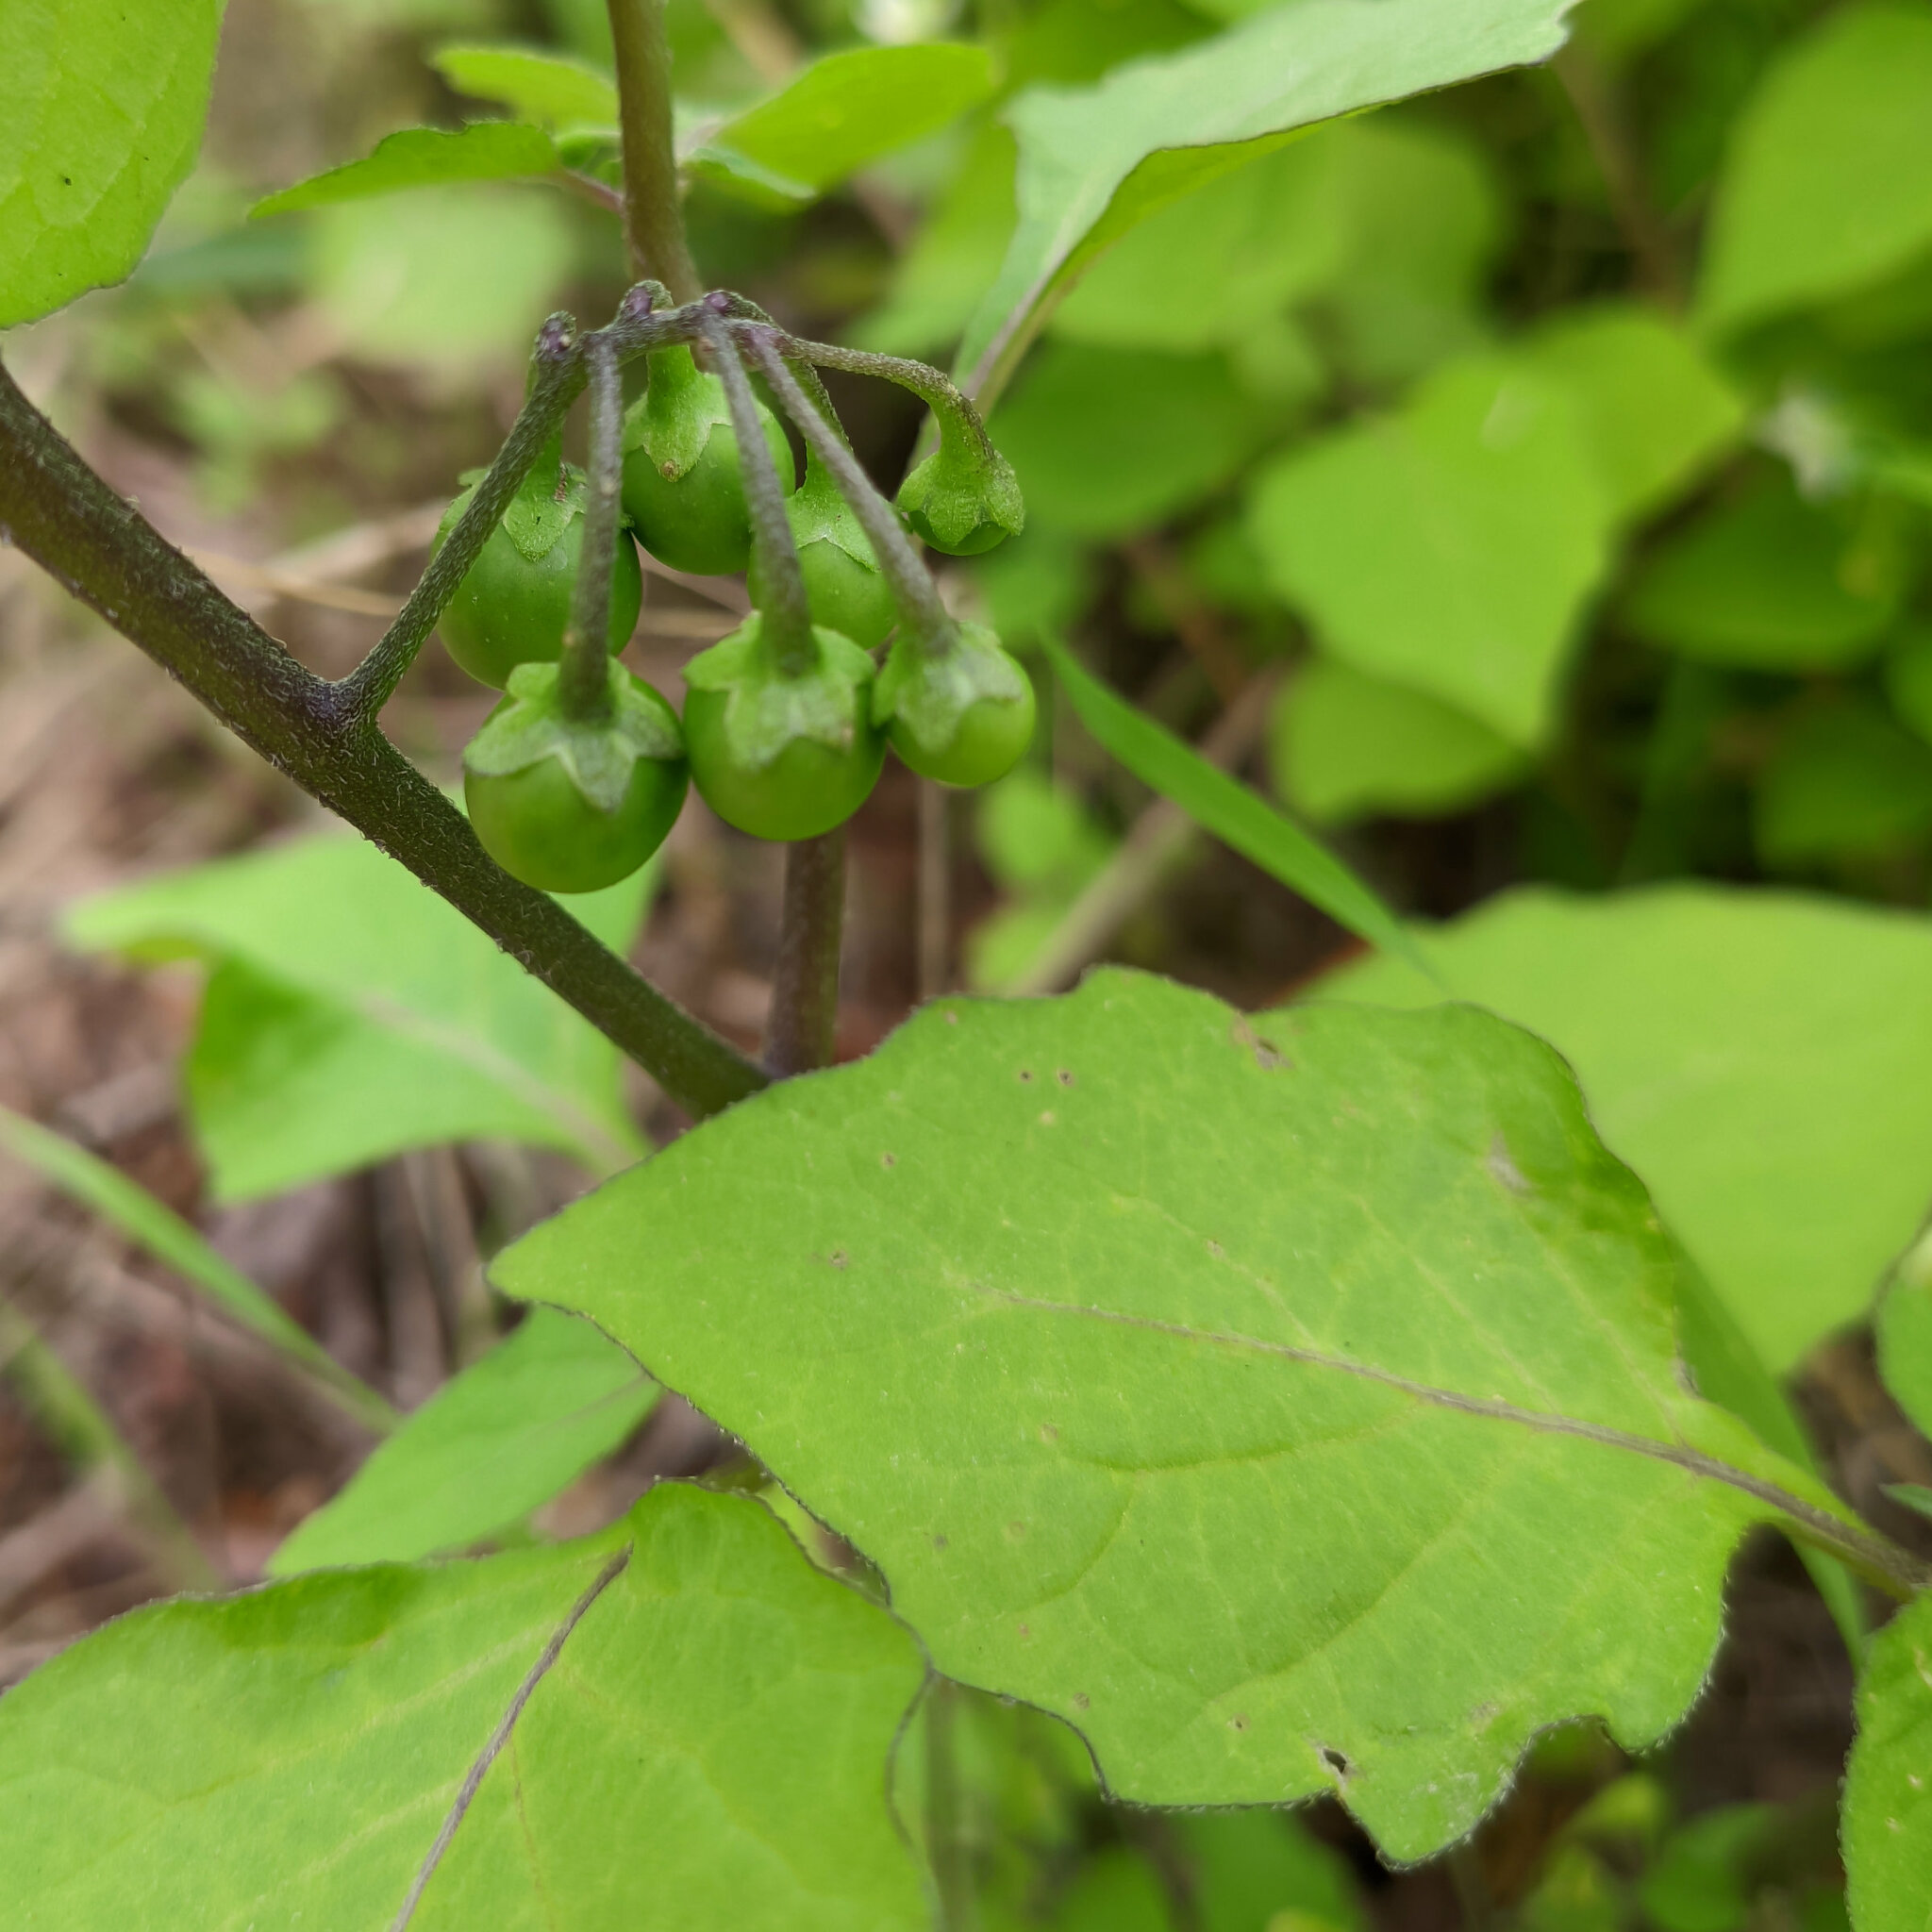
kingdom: Plantae
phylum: Tracheophyta
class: Magnoliopsida
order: Solanales
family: Solanaceae
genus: Solanum
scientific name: Solanum nigrum
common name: Black nightshade
